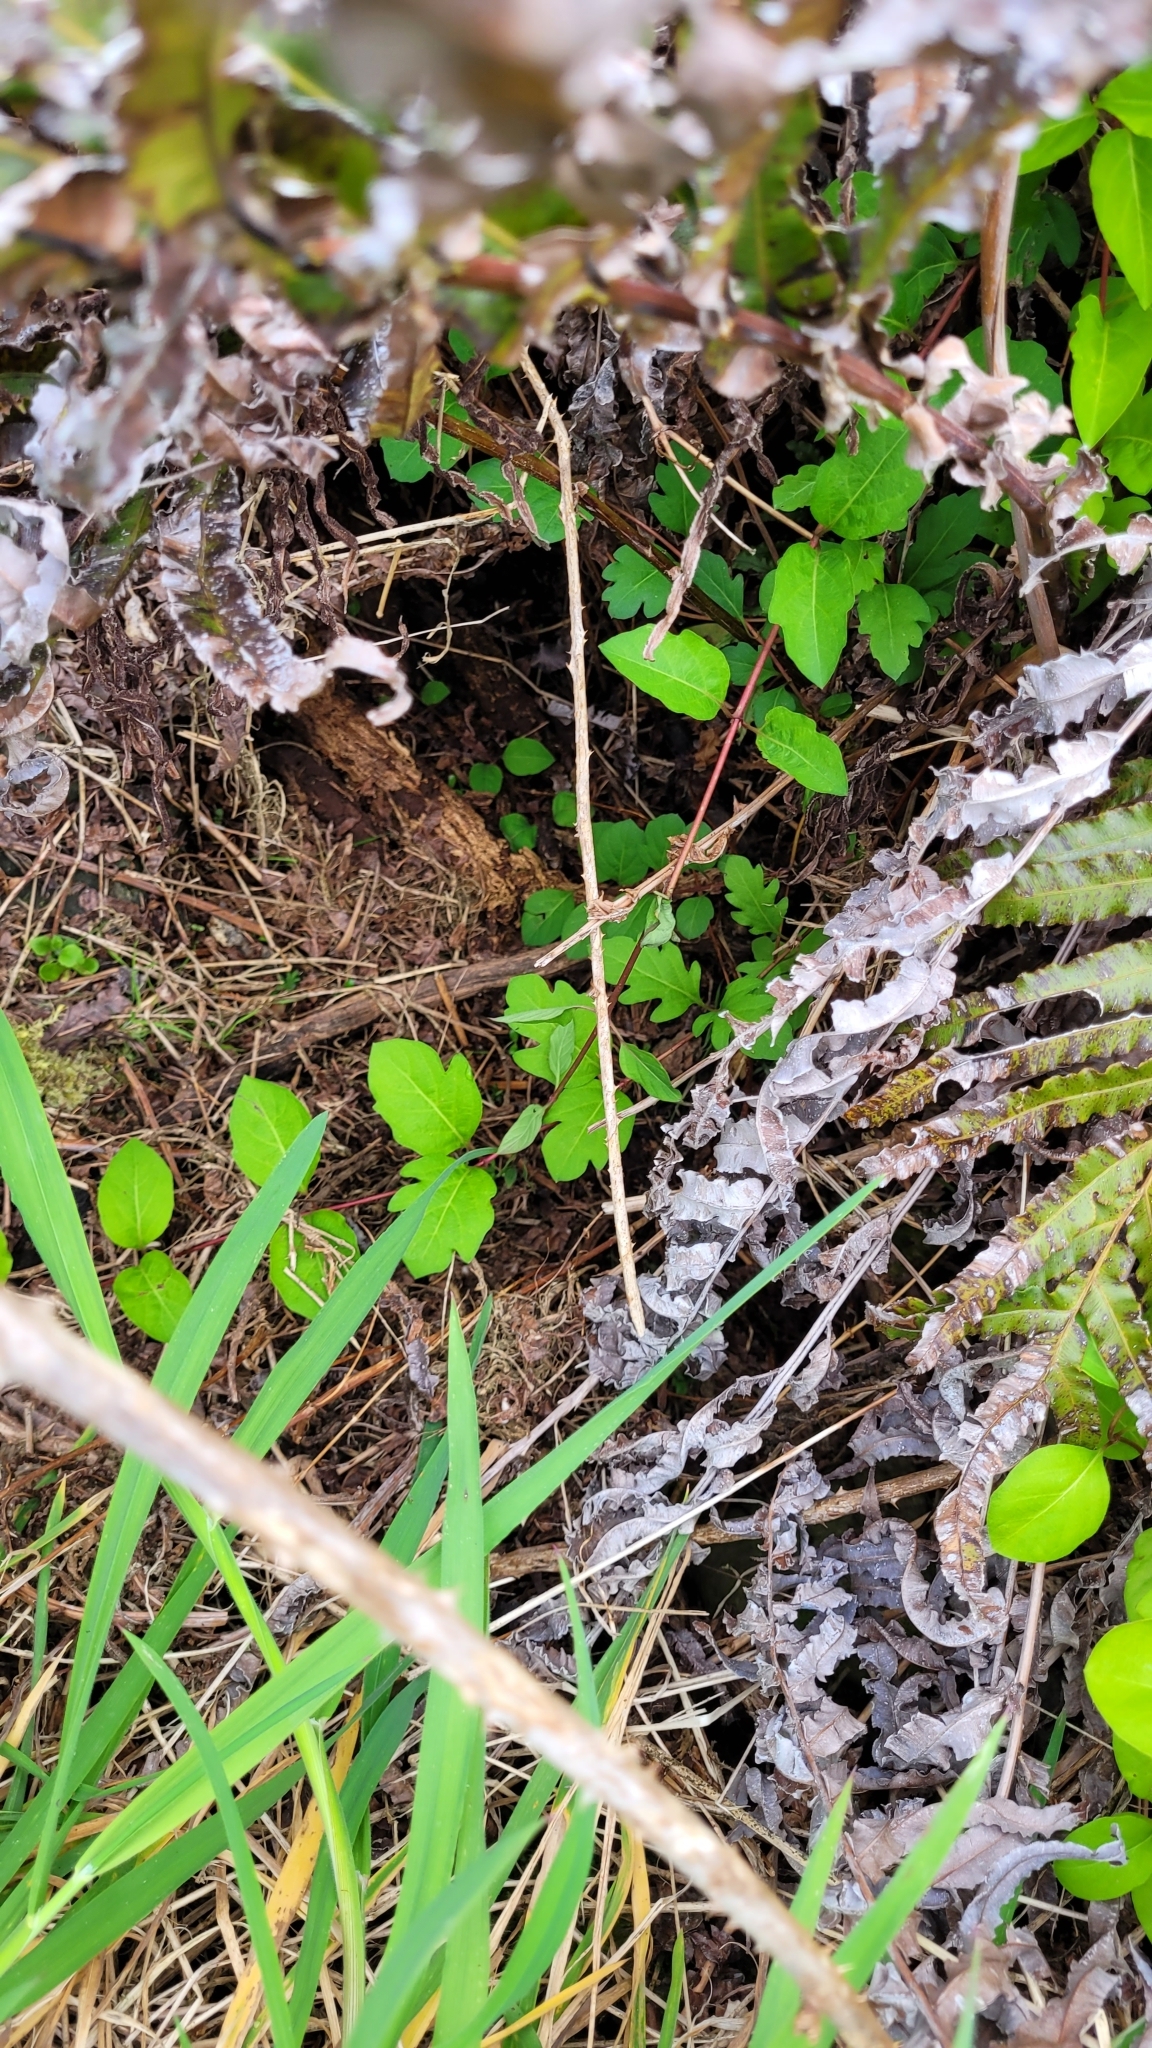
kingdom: Plantae
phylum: Tracheophyta
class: Magnoliopsida
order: Dipsacales
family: Caprifoliaceae
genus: Lonicera
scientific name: Lonicera japonica
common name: Japanese honeysuckle
